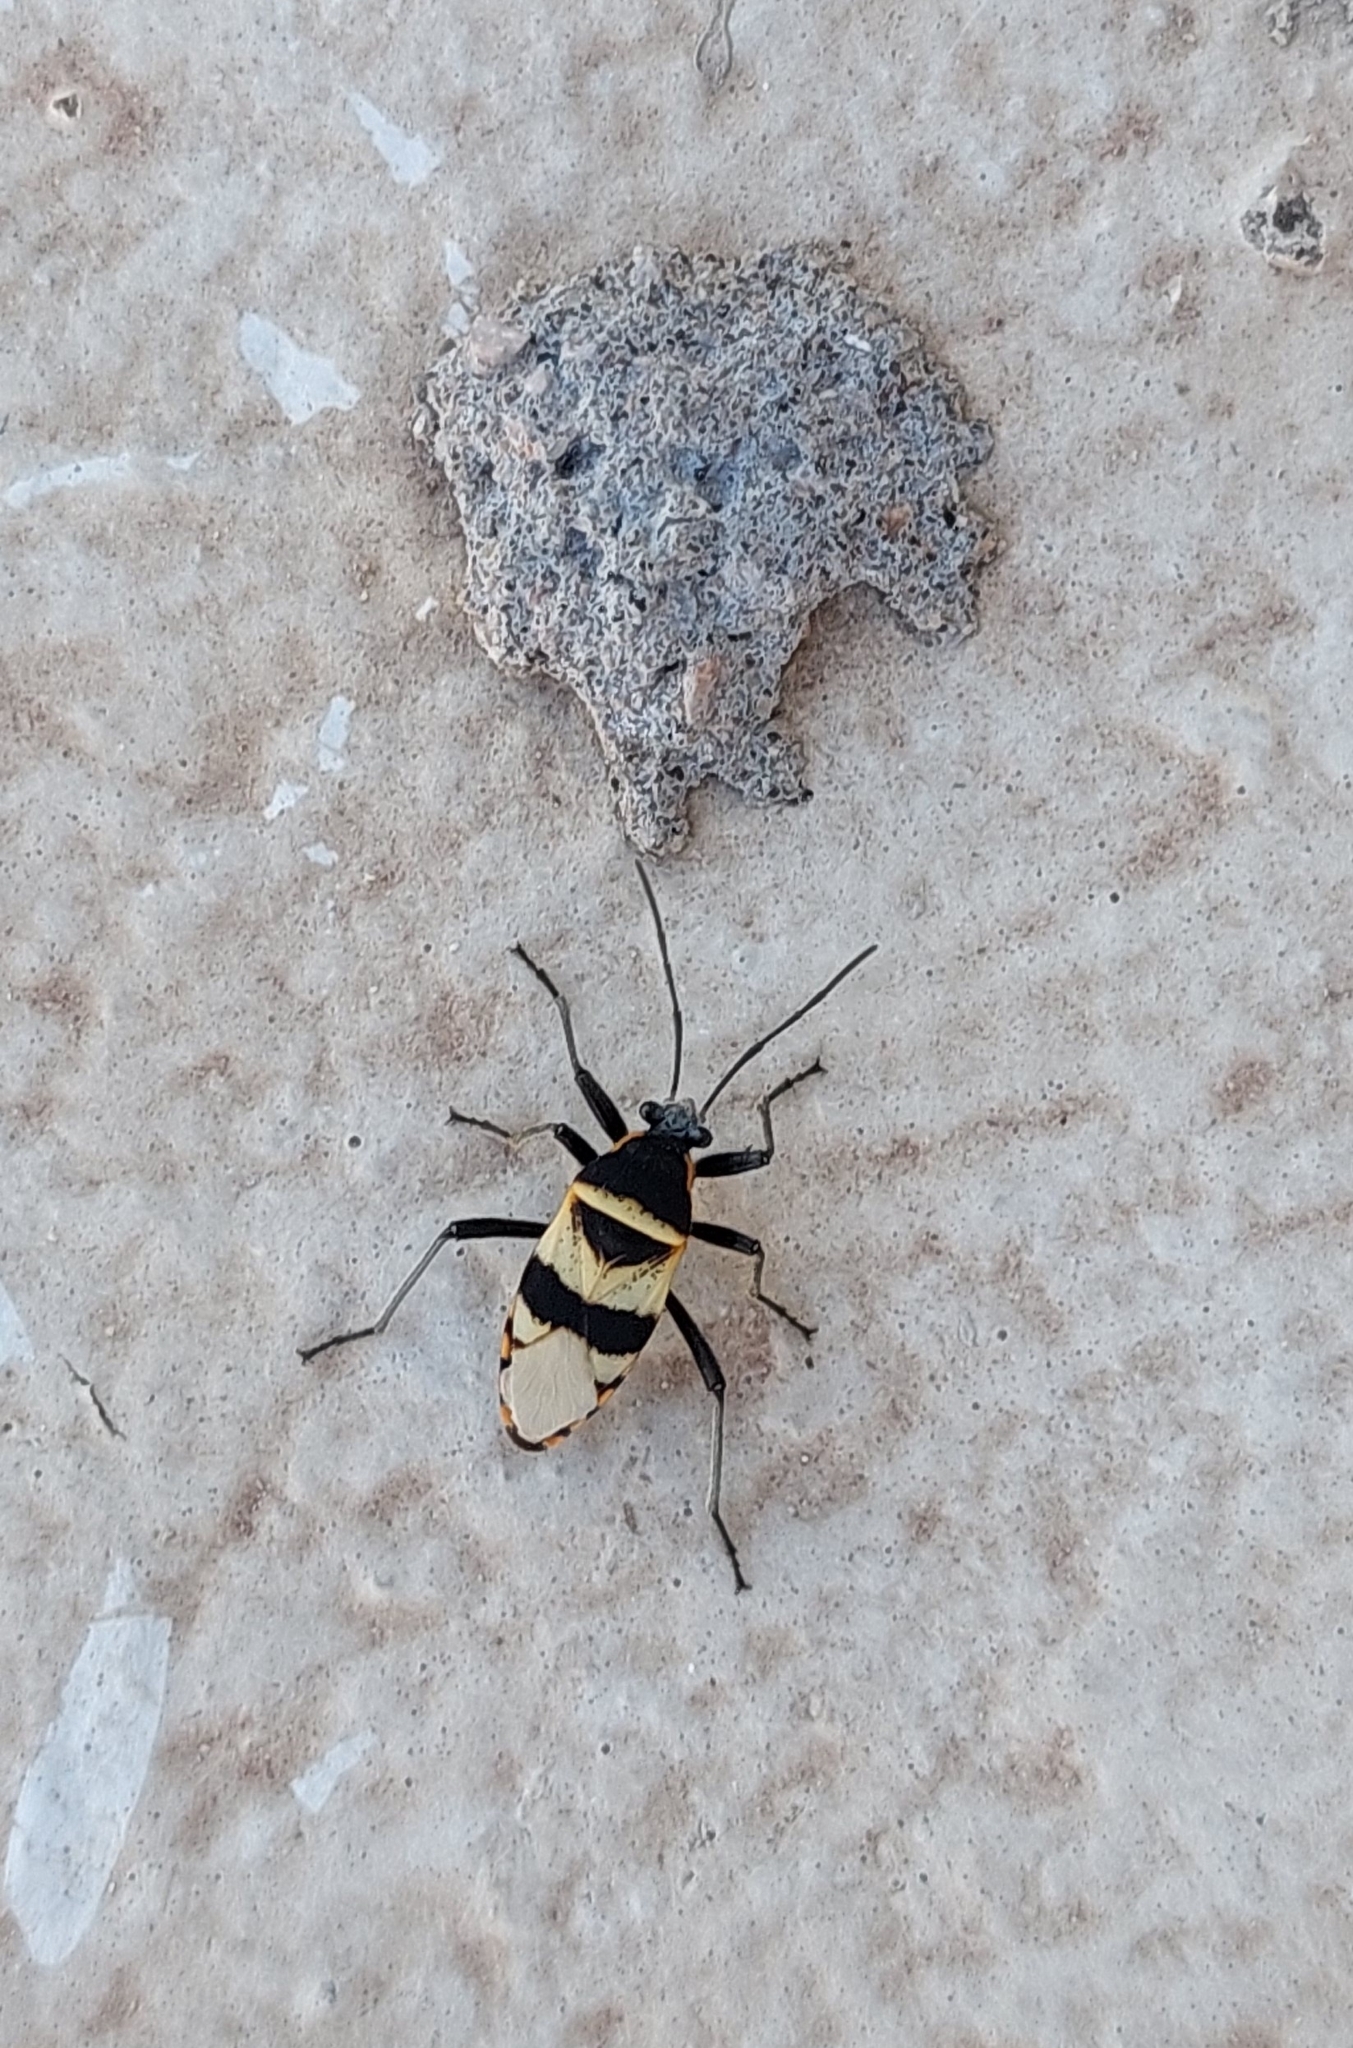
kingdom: Animalia
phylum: Arthropoda
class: Insecta
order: Hemiptera
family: Largidae
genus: Largus
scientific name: Largus fasciatus
